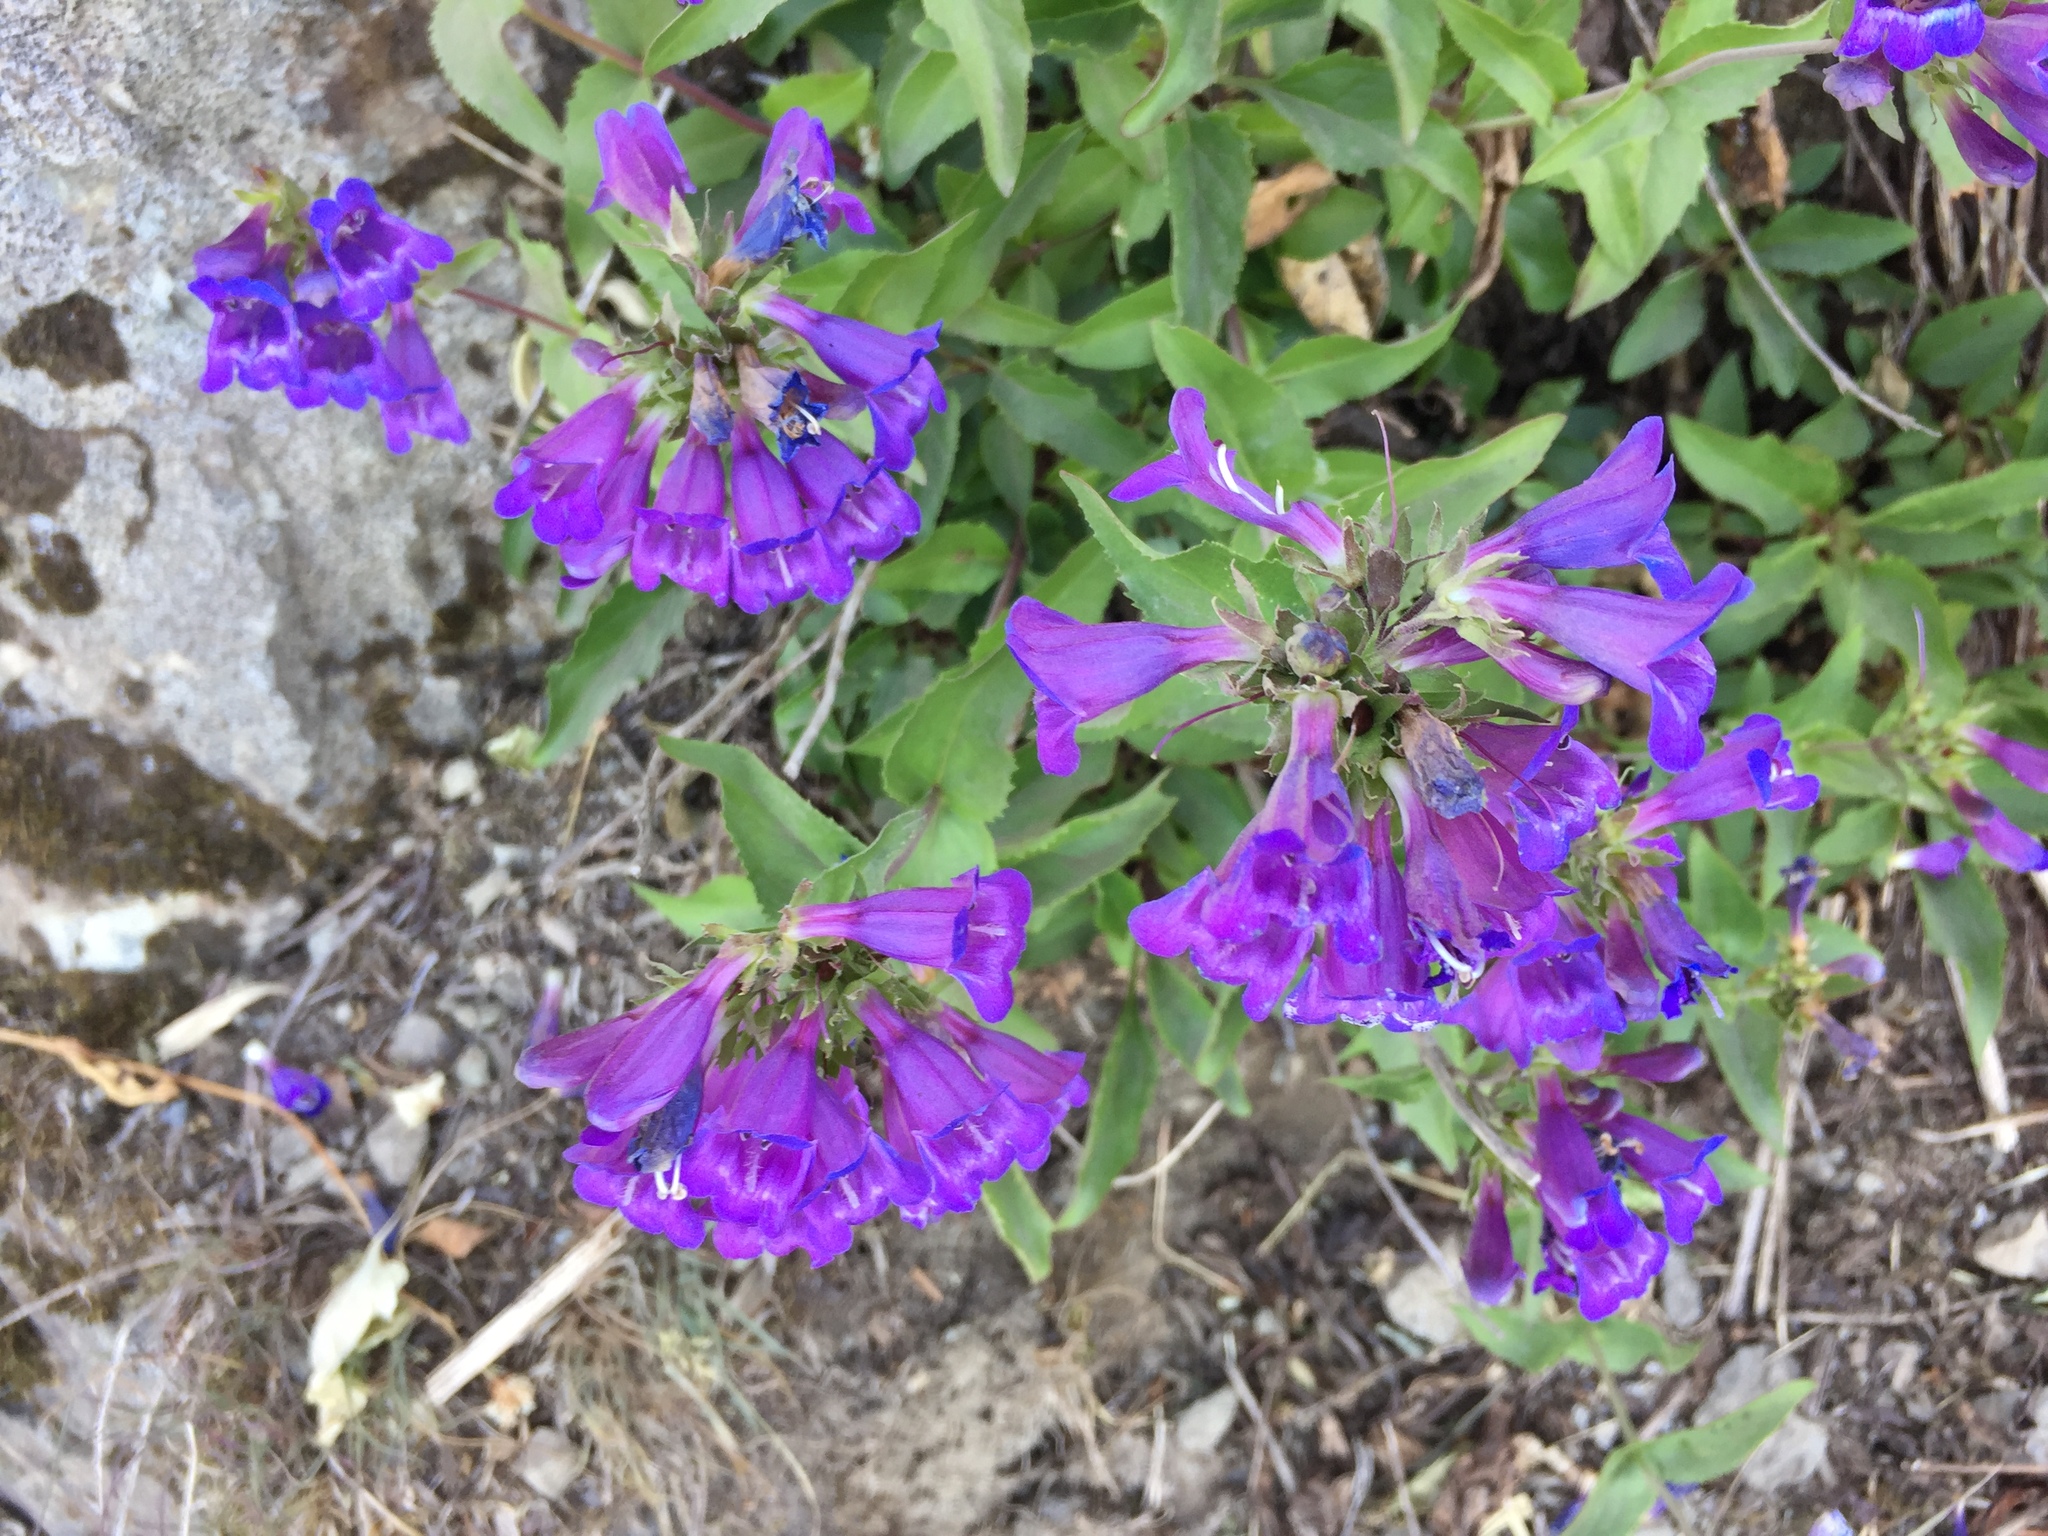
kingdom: Plantae
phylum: Tracheophyta
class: Magnoliopsida
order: Lamiales
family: Plantaginaceae
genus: Penstemon
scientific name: Penstemon serrulatus
